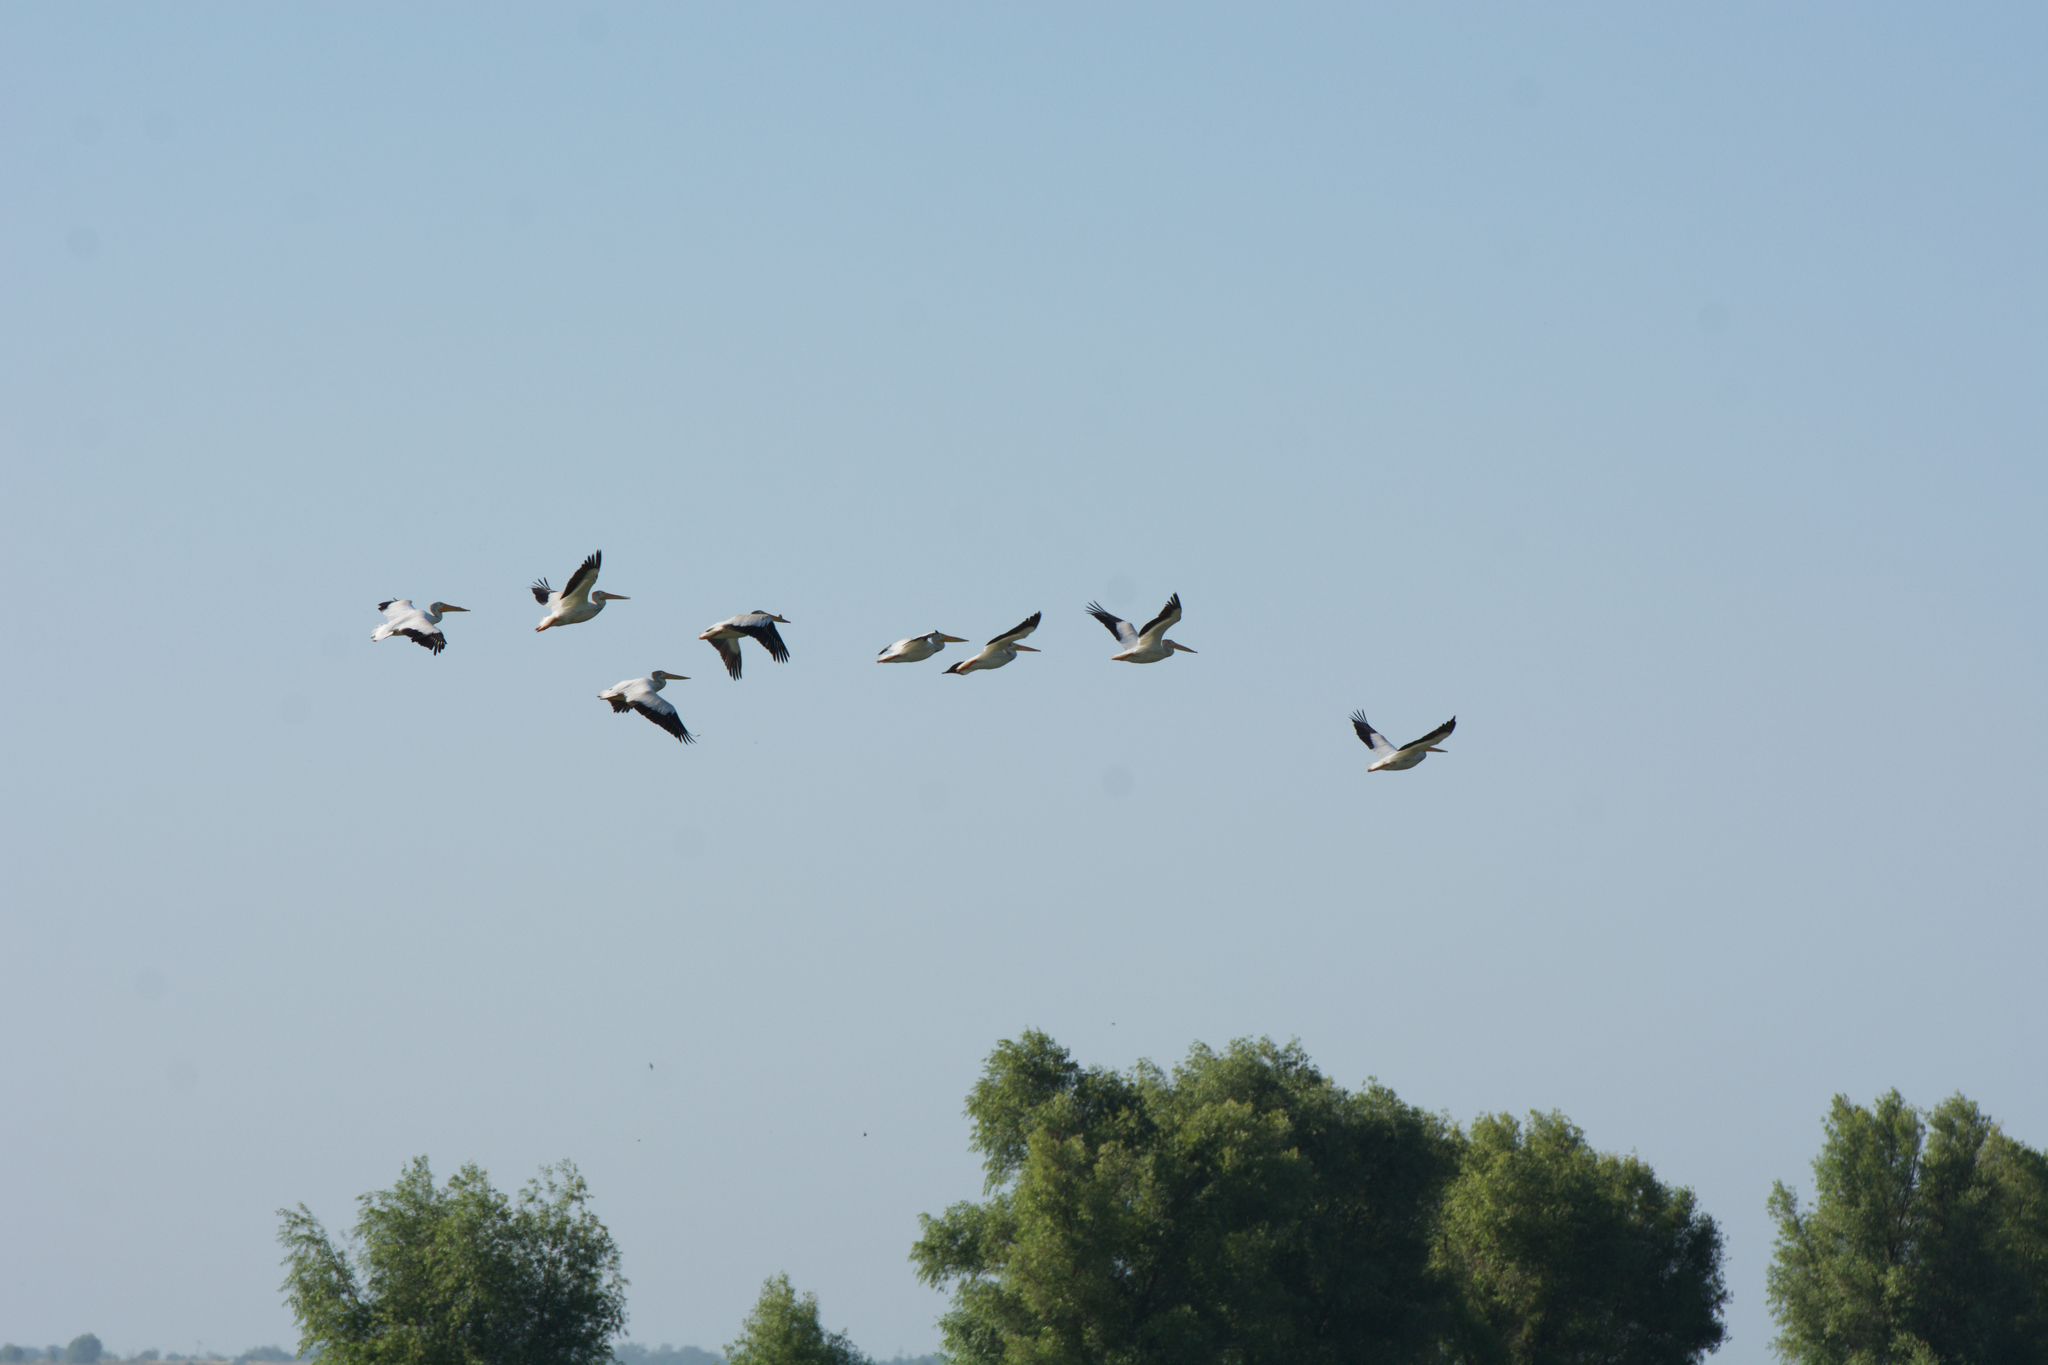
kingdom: Animalia
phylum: Chordata
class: Aves
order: Pelecaniformes
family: Pelecanidae
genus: Pelecanus
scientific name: Pelecanus erythrorhynchos
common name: American white pelican
